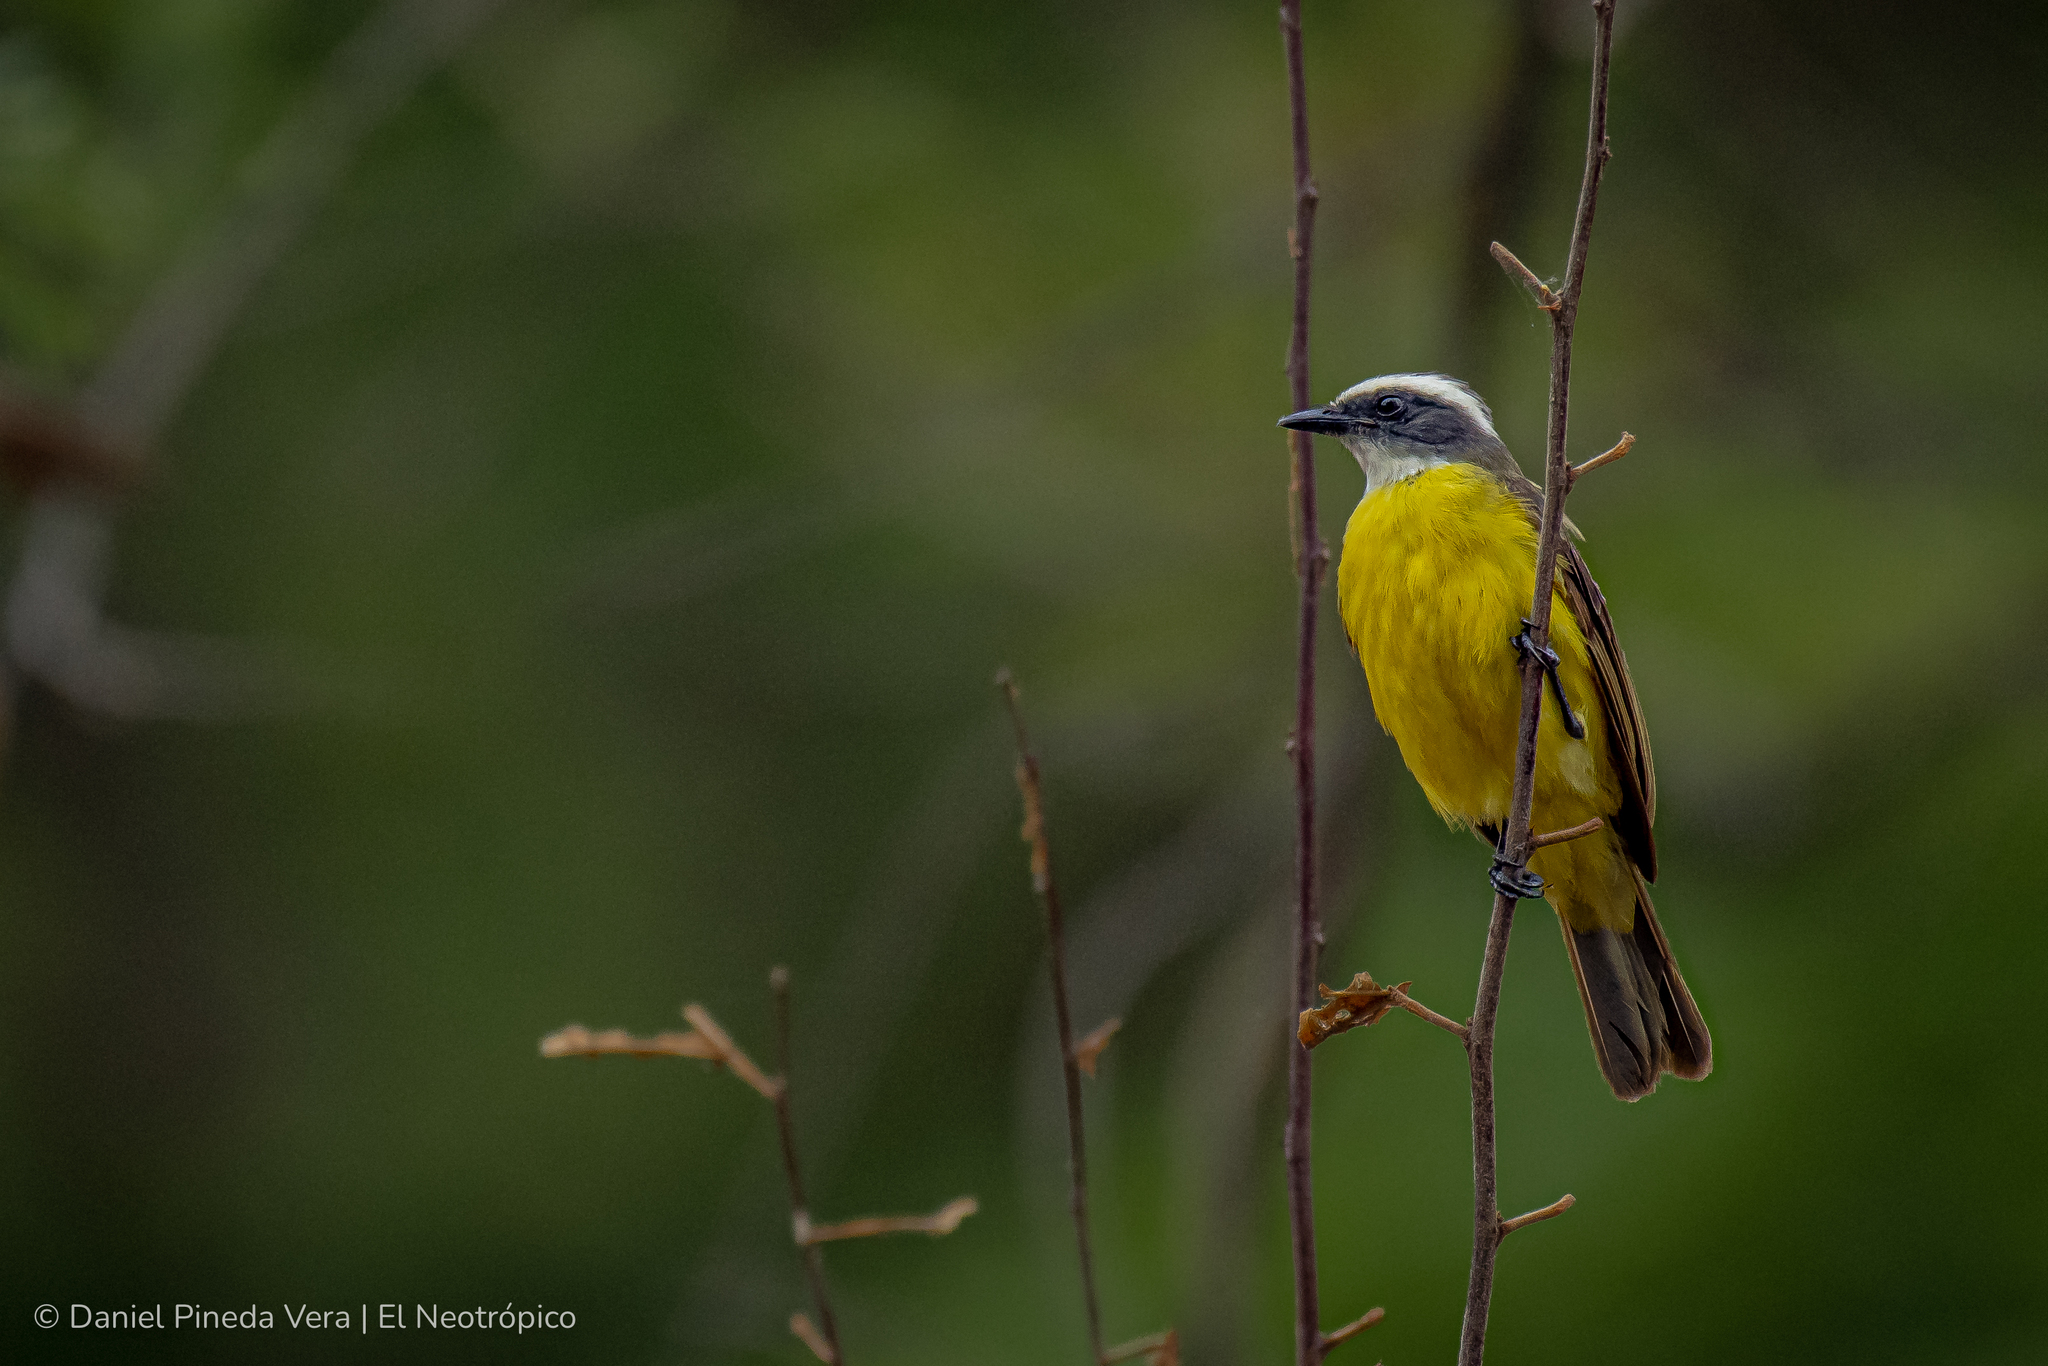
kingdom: Animalia
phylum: Chordata
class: Aves
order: Passeriformes
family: Tyrannidae
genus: Myiozetetes
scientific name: Myiozetetes similis
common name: Social flycatcher
